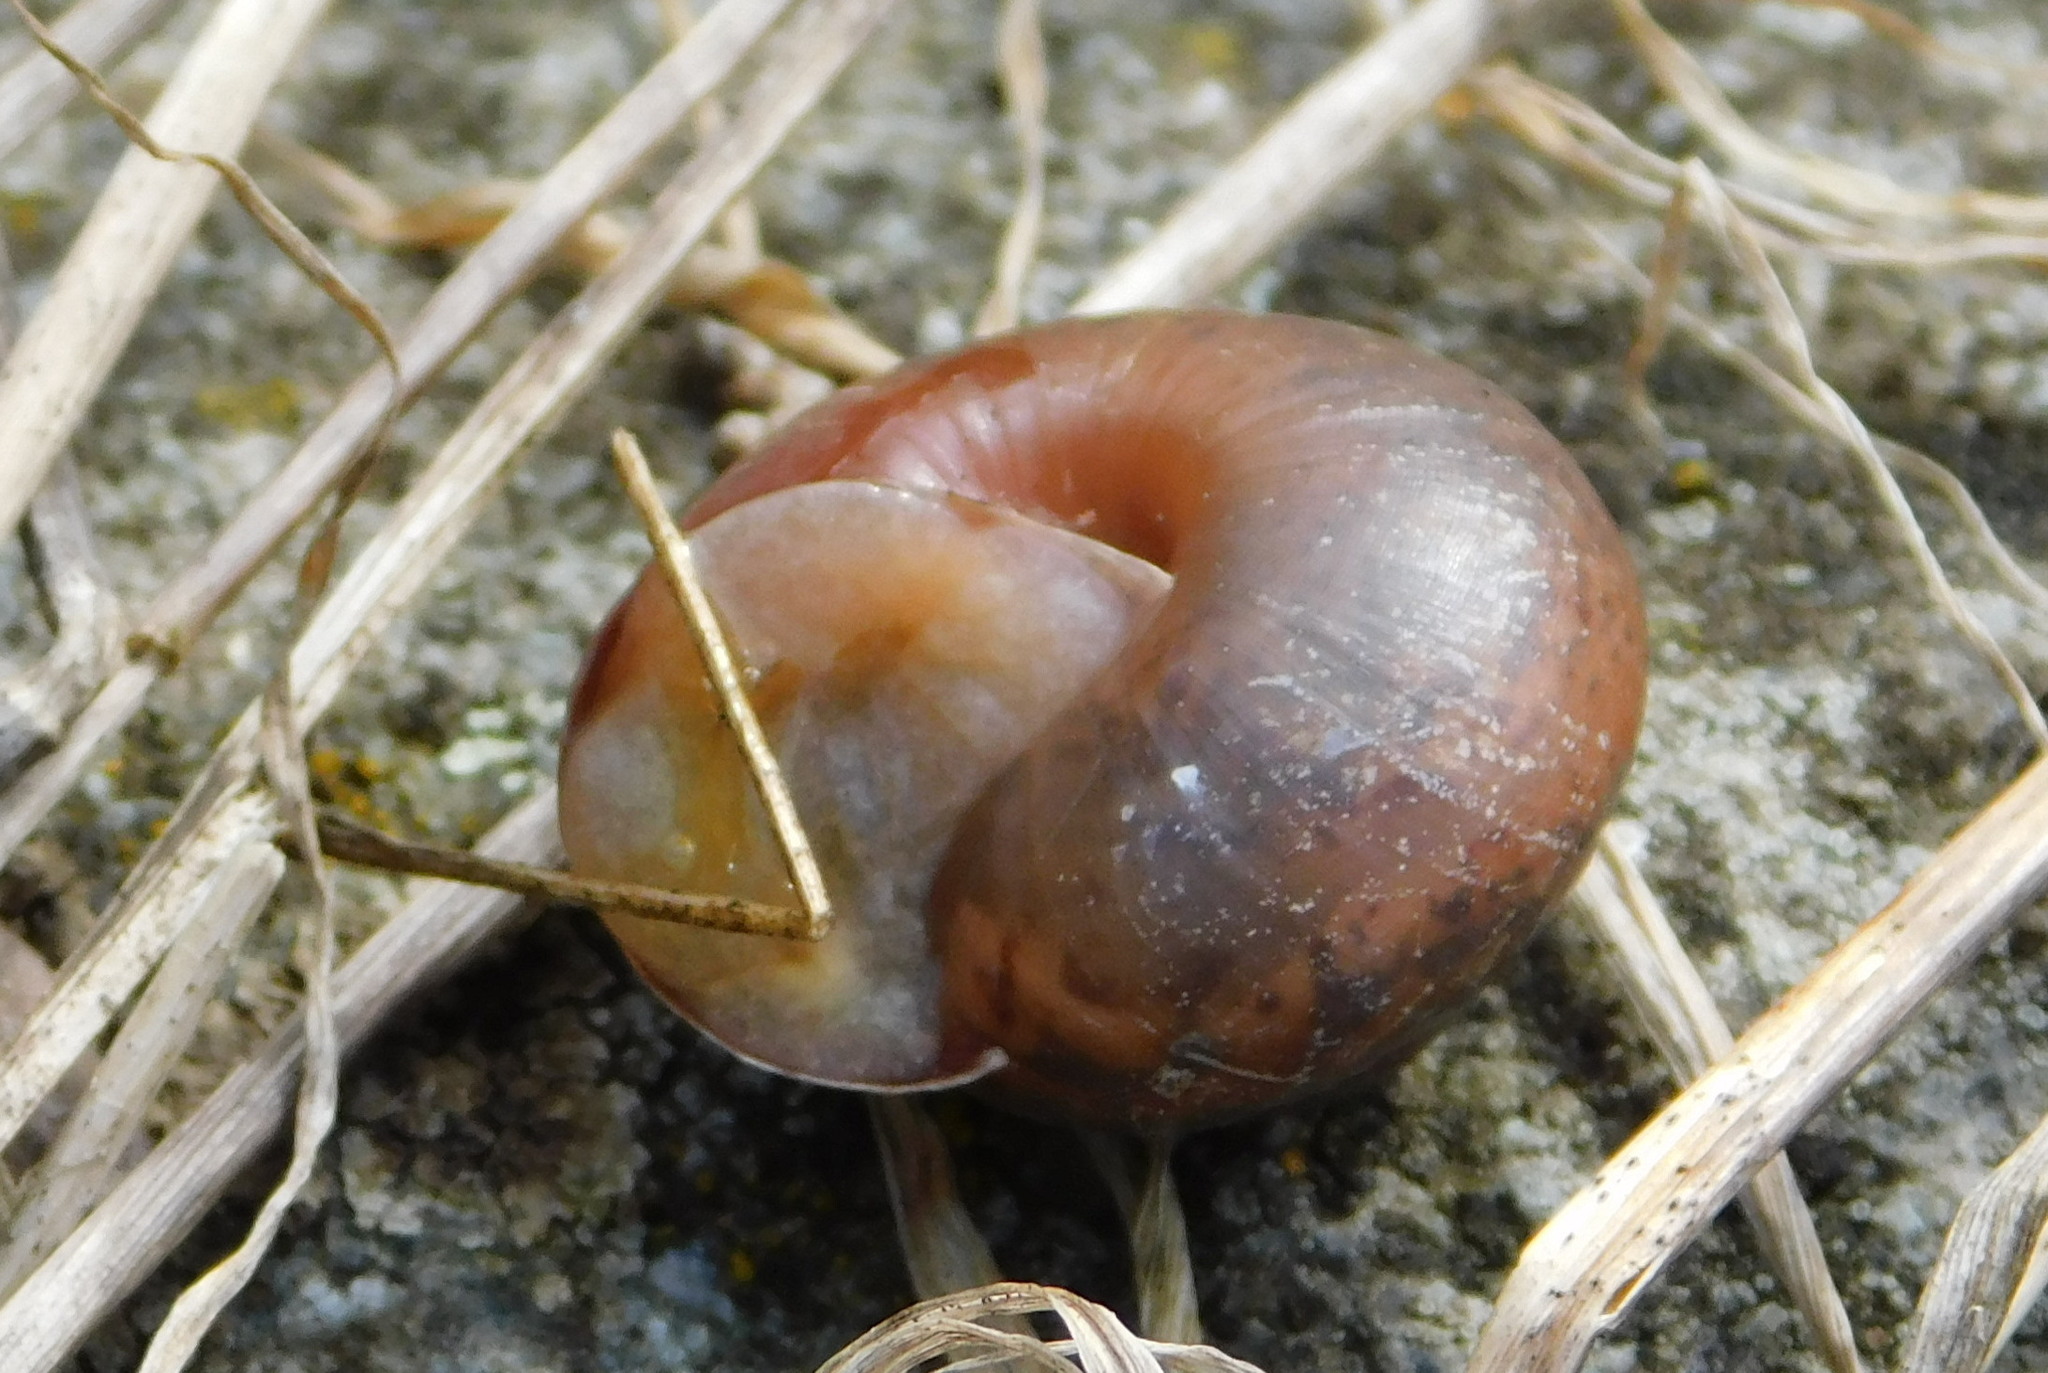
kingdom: Animalia
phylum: Mollusca
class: Gastropoda
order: Stylommatophora
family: Camaenidae
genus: Fruticicola
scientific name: Fruticicola fruticum
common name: Bush snail
